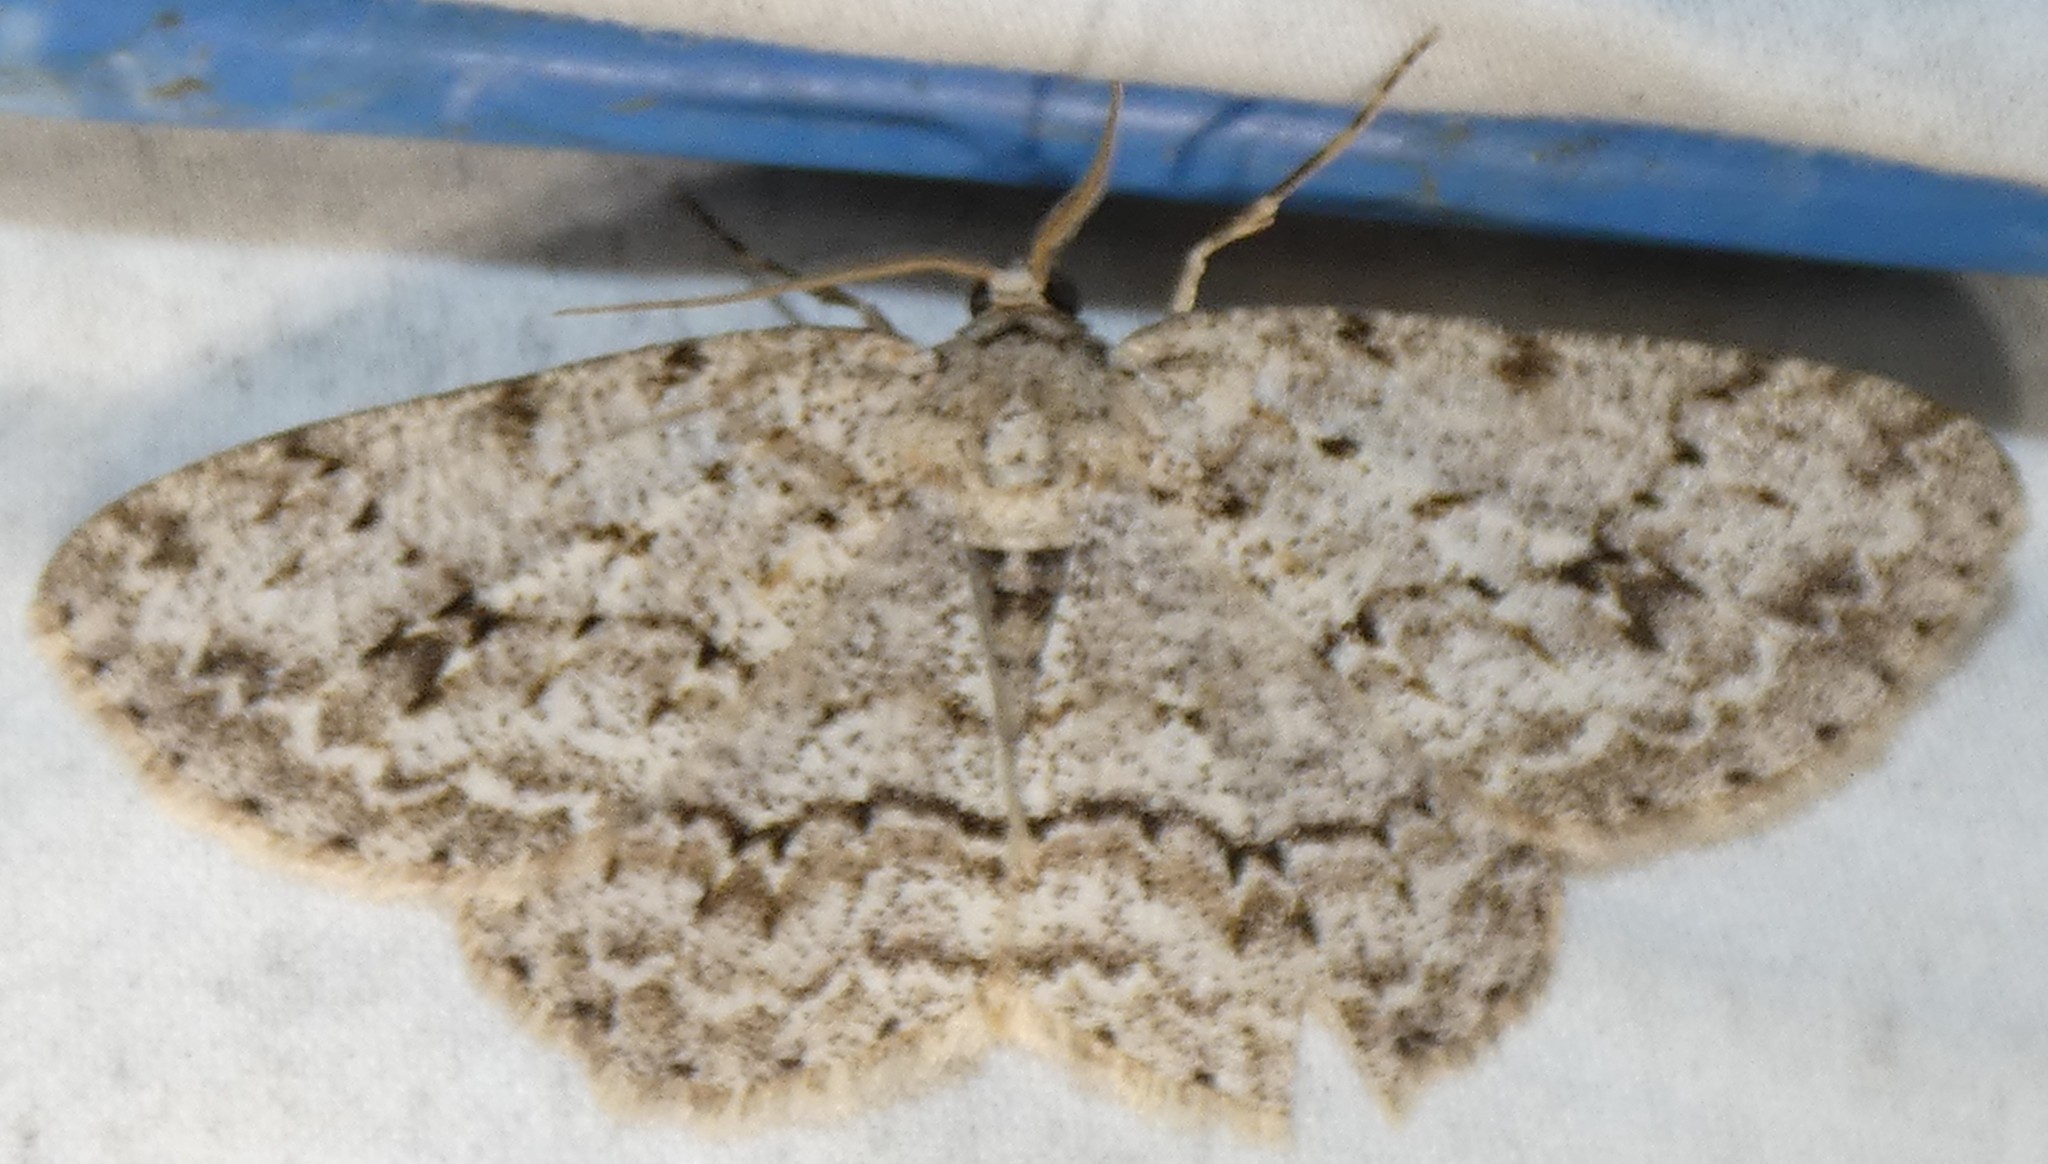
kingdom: Animalia
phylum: Arthropoda
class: Insecta
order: Lepidoptera
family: Geometridae
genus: Ectropis
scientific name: Ectropis crepuscularia
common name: Engrailed
